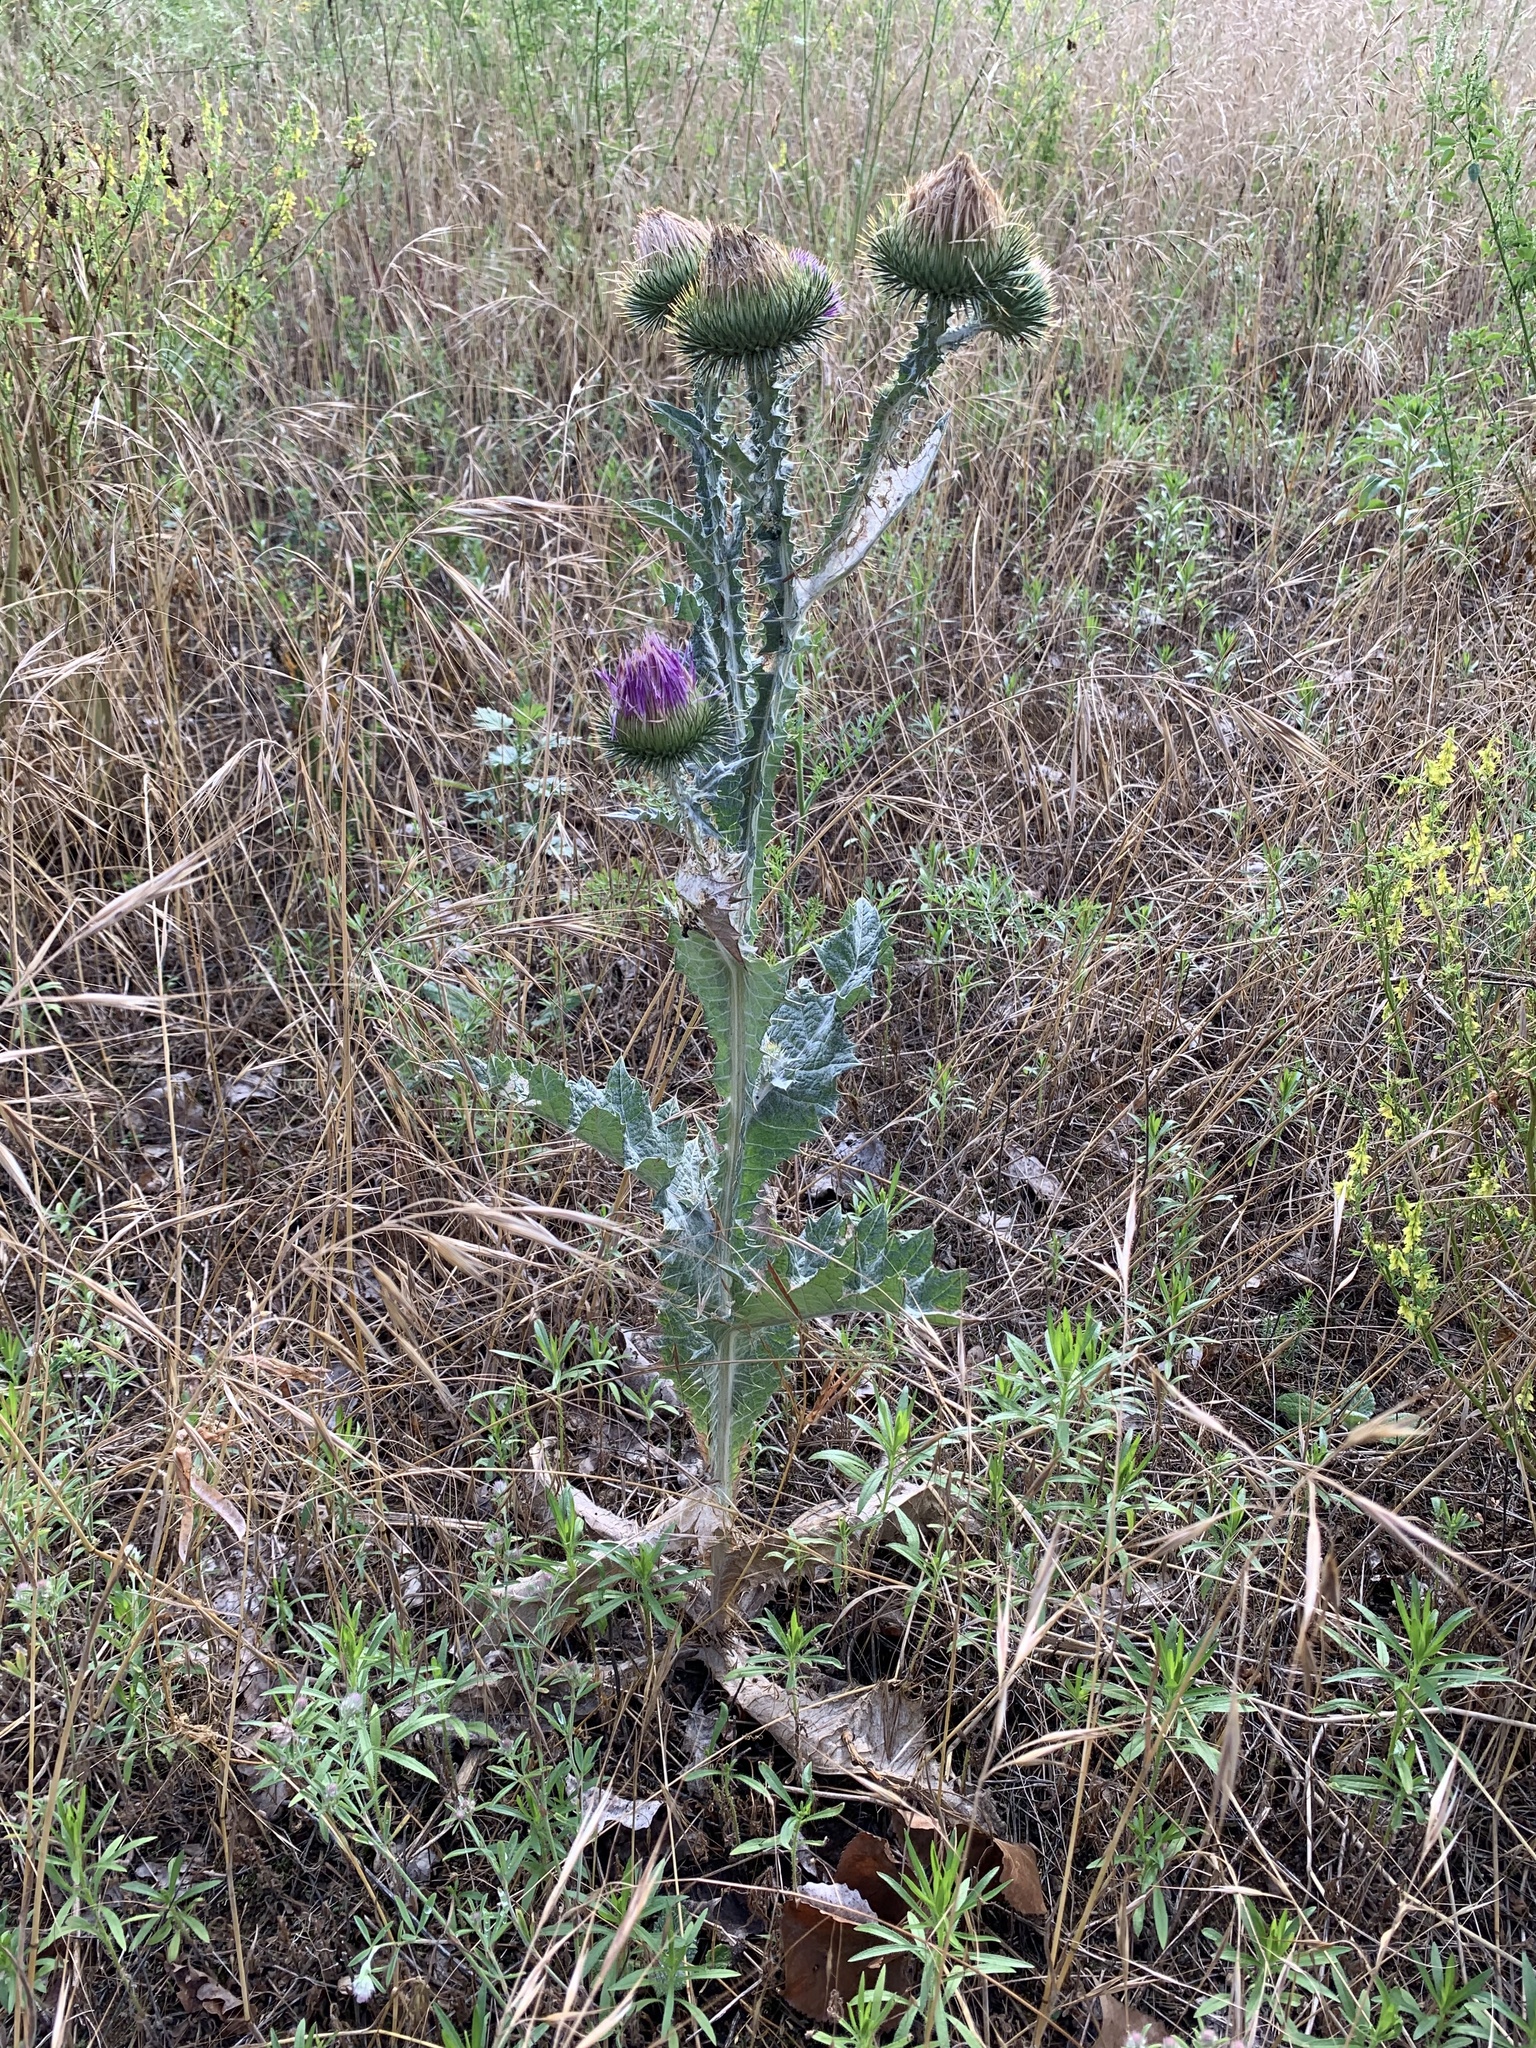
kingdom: Plantae
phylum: Tracheophyta
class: Magnoliopsida
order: Asterales
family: Asteraceae
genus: Onopordum
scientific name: Onopordum acanthium
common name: Scotch thistle
